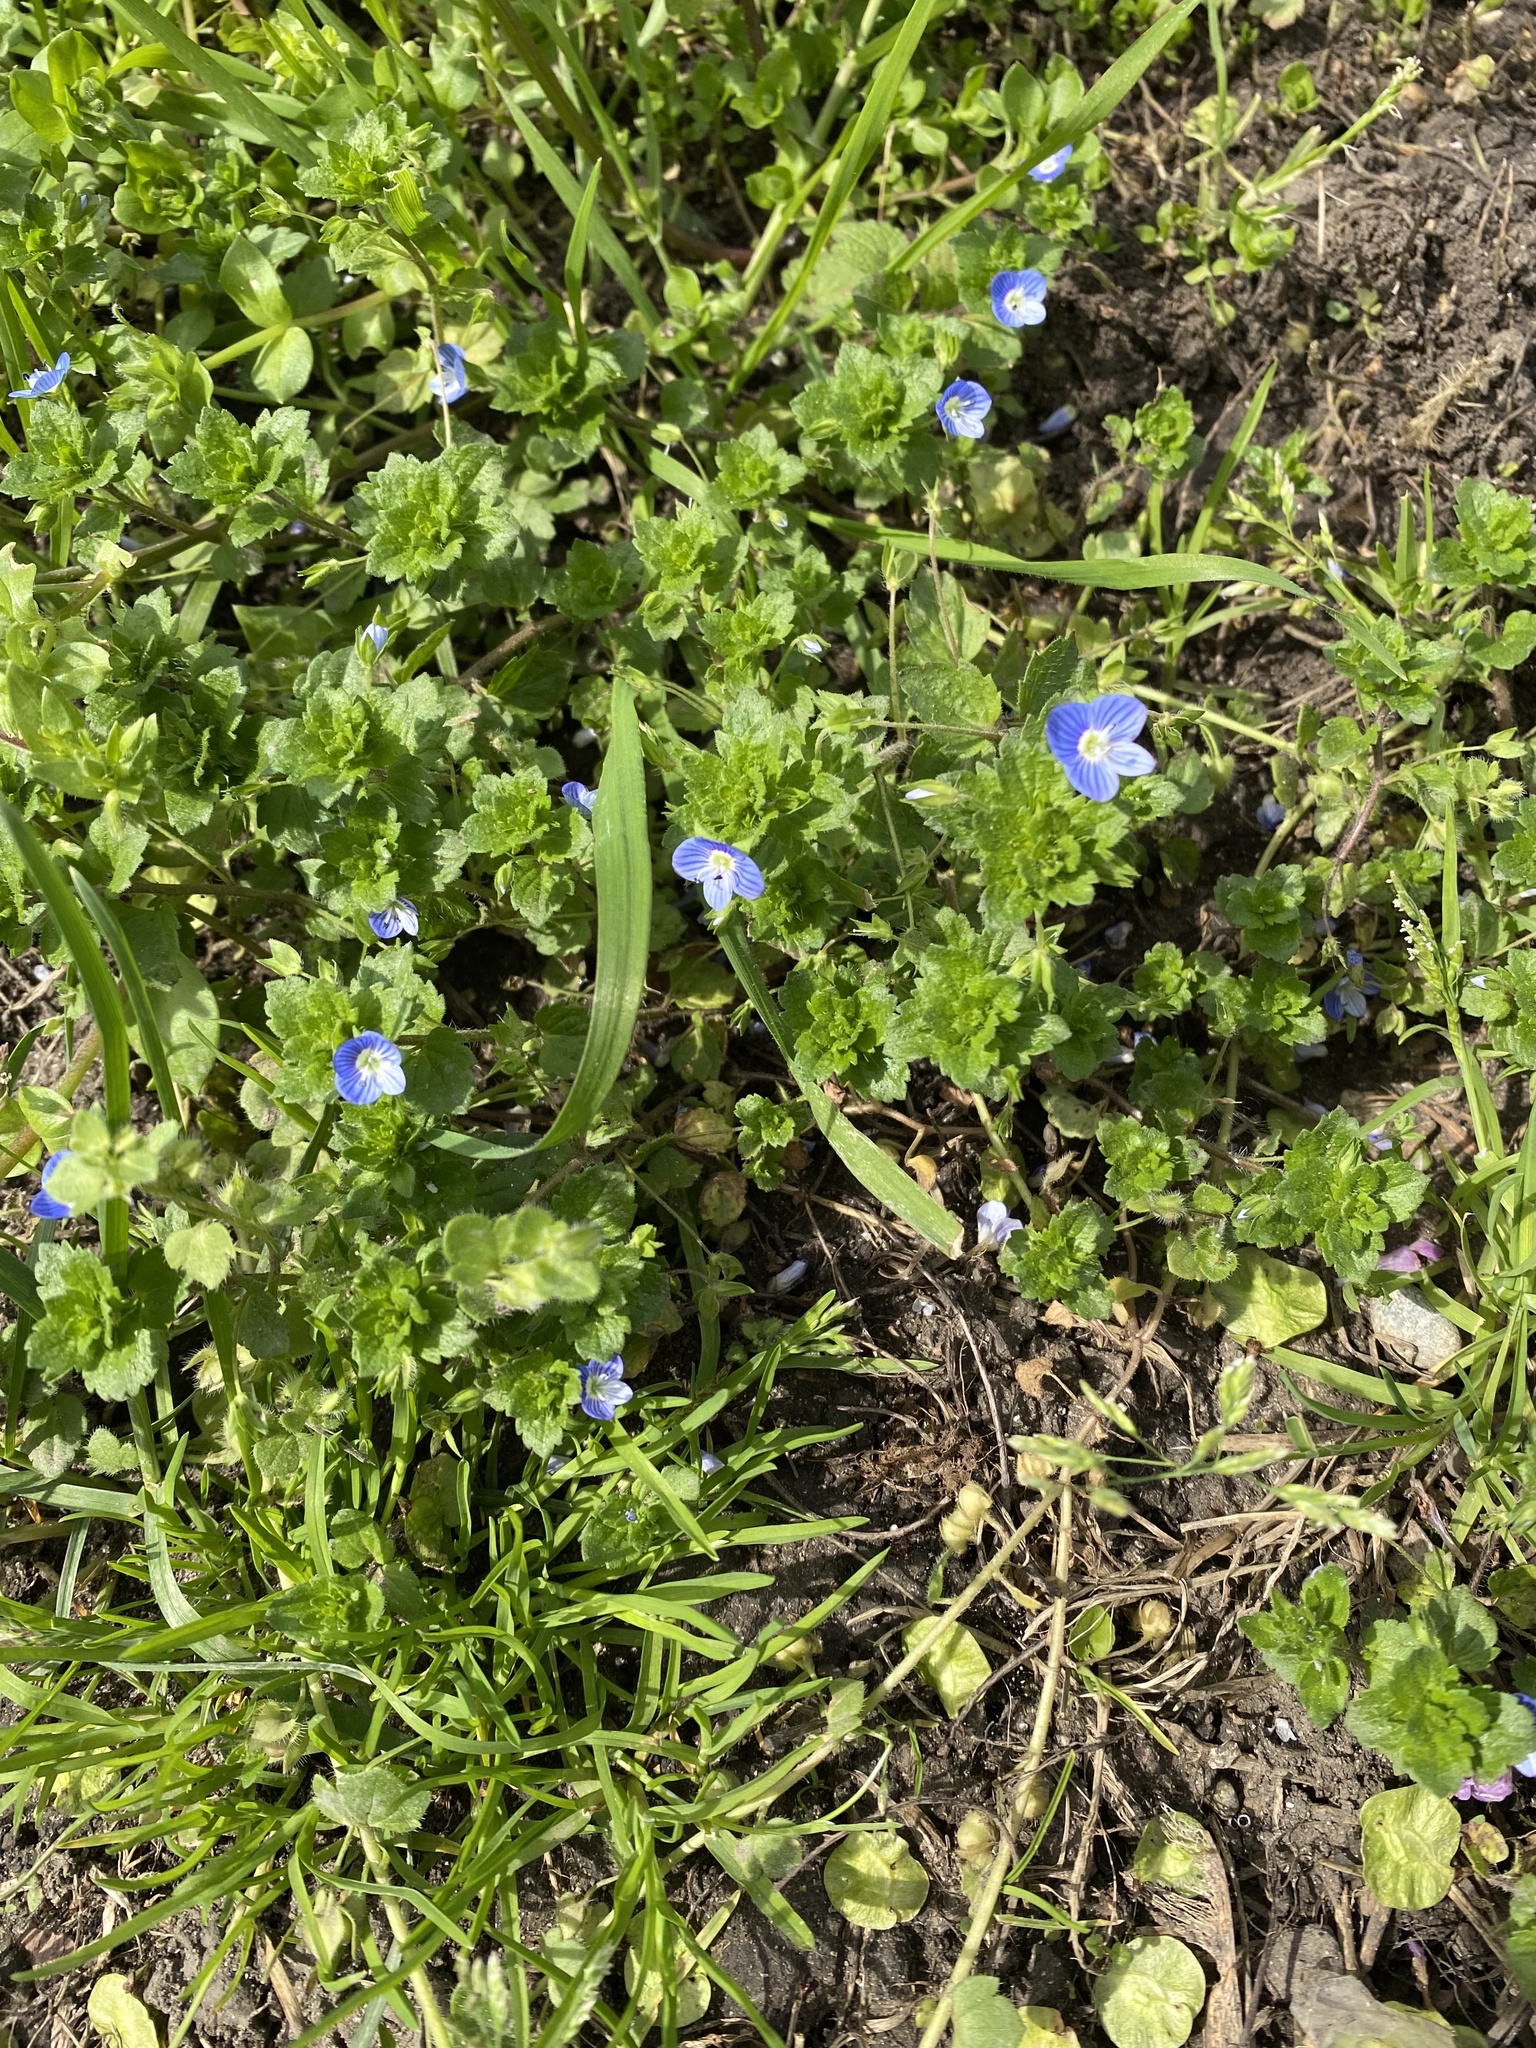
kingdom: Plantae
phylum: Tracheophyta
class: Magnoliopsida
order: Lamiales
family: Plantaginaceae
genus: Veronica
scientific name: Veronica persica
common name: Common field-speedwell
